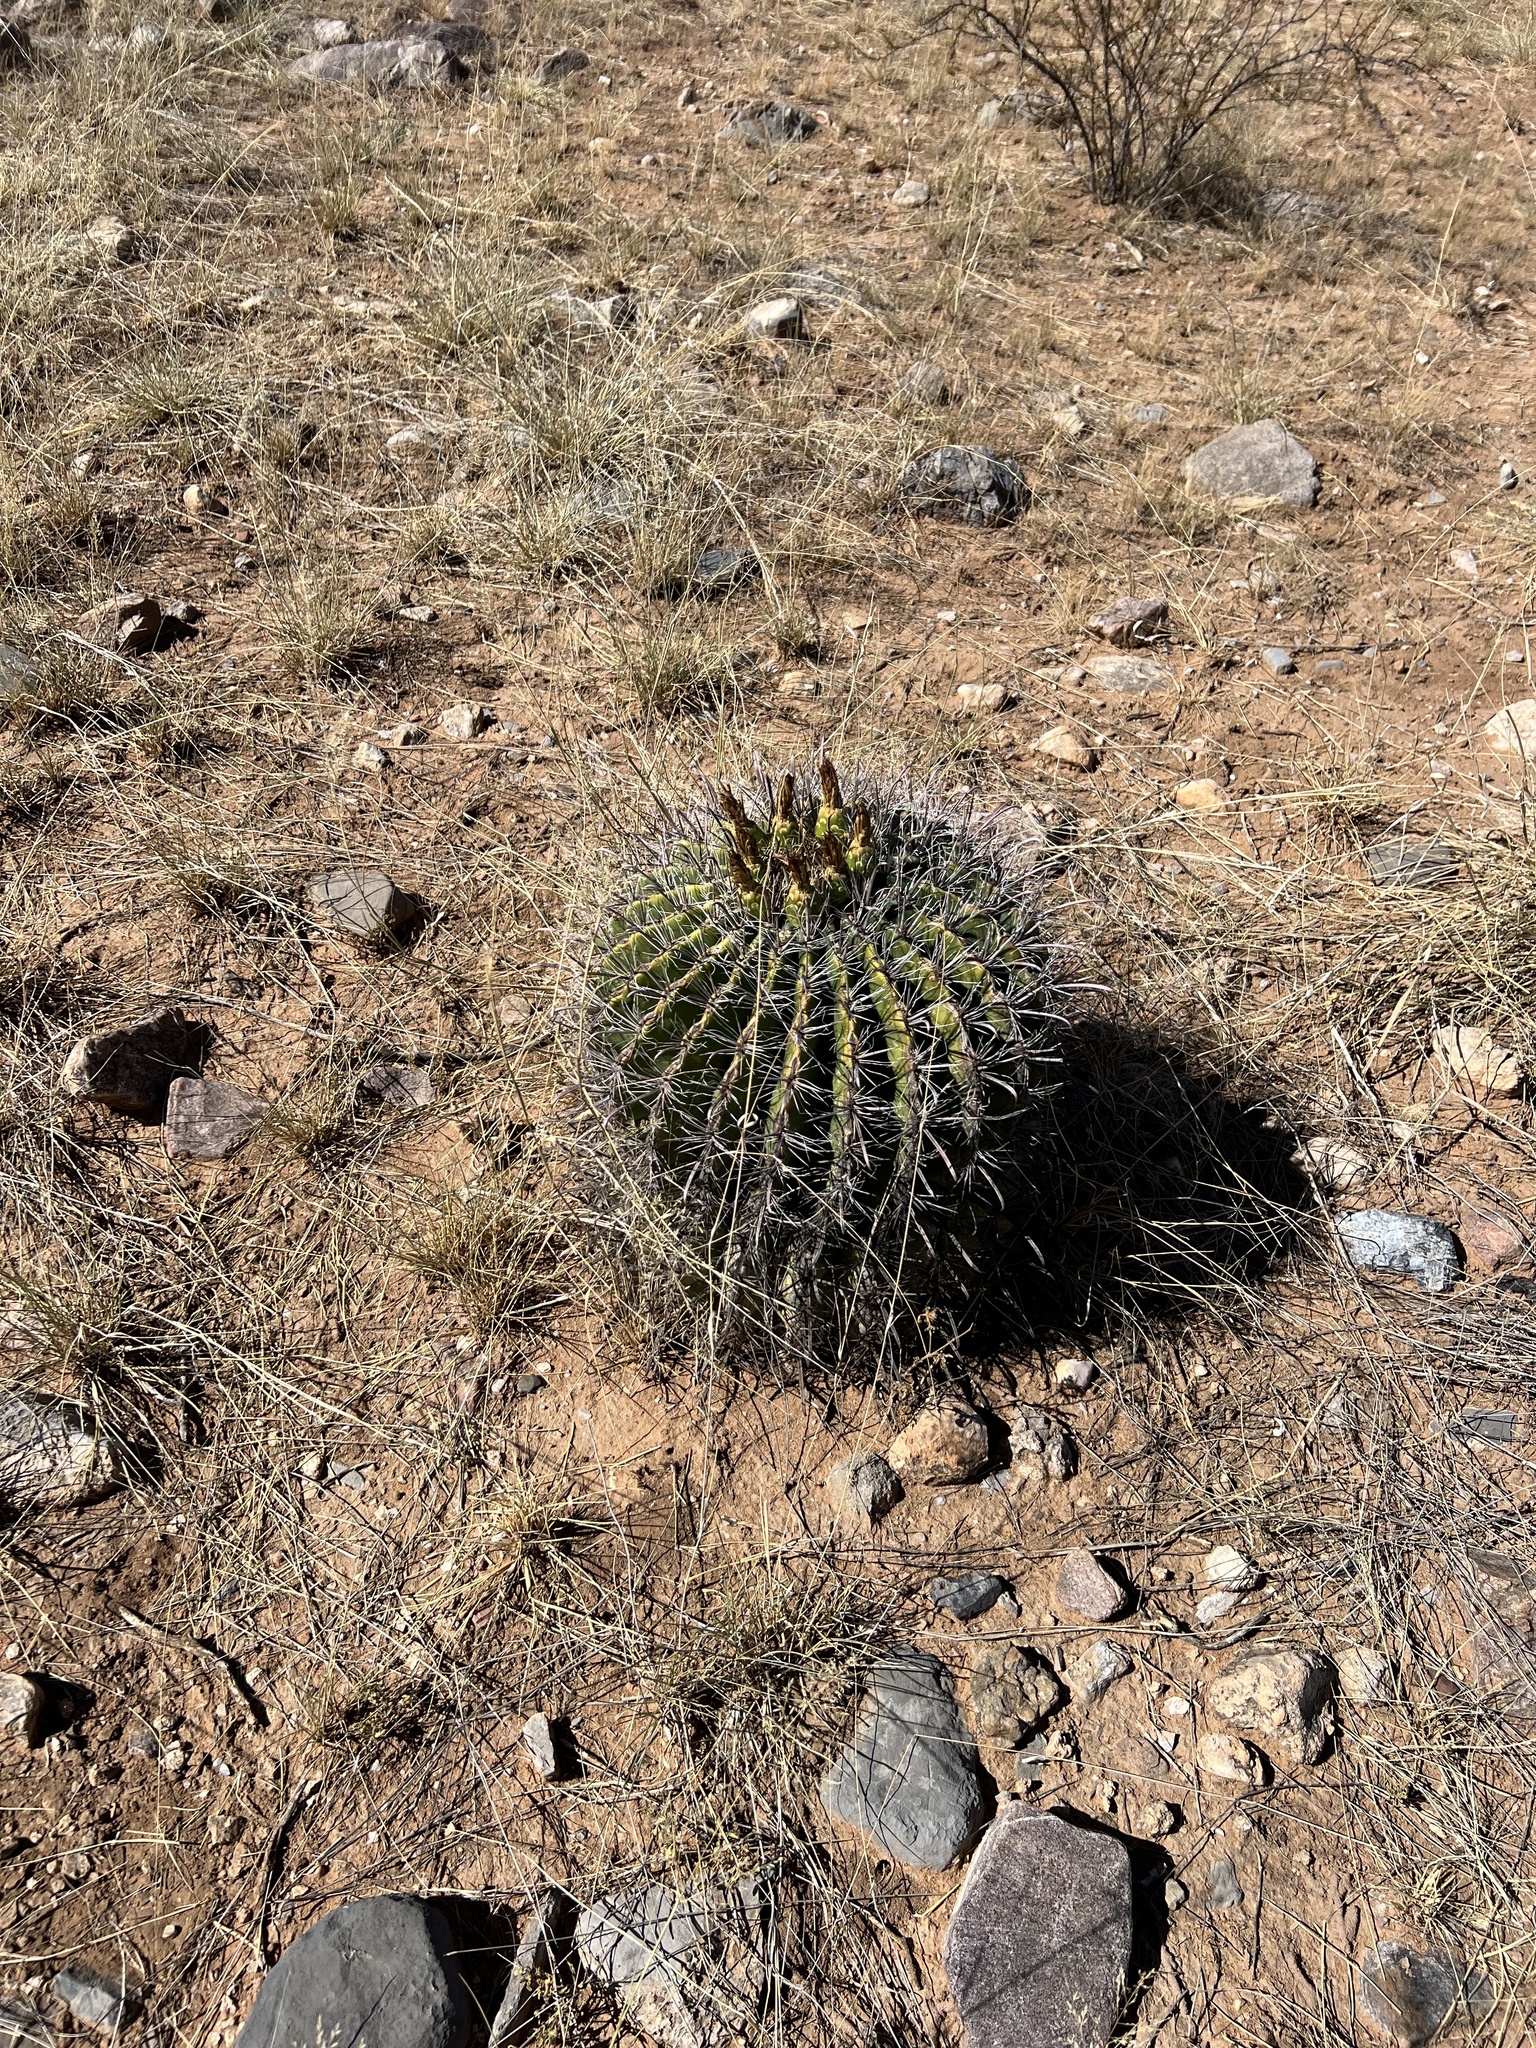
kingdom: Plantae
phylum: Tracheophyta
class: Magnoliopsida
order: Caryophyllales
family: Cactaceae
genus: Ferocactus
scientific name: Ferocactus wislizeni
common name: Candy barrel cactus
